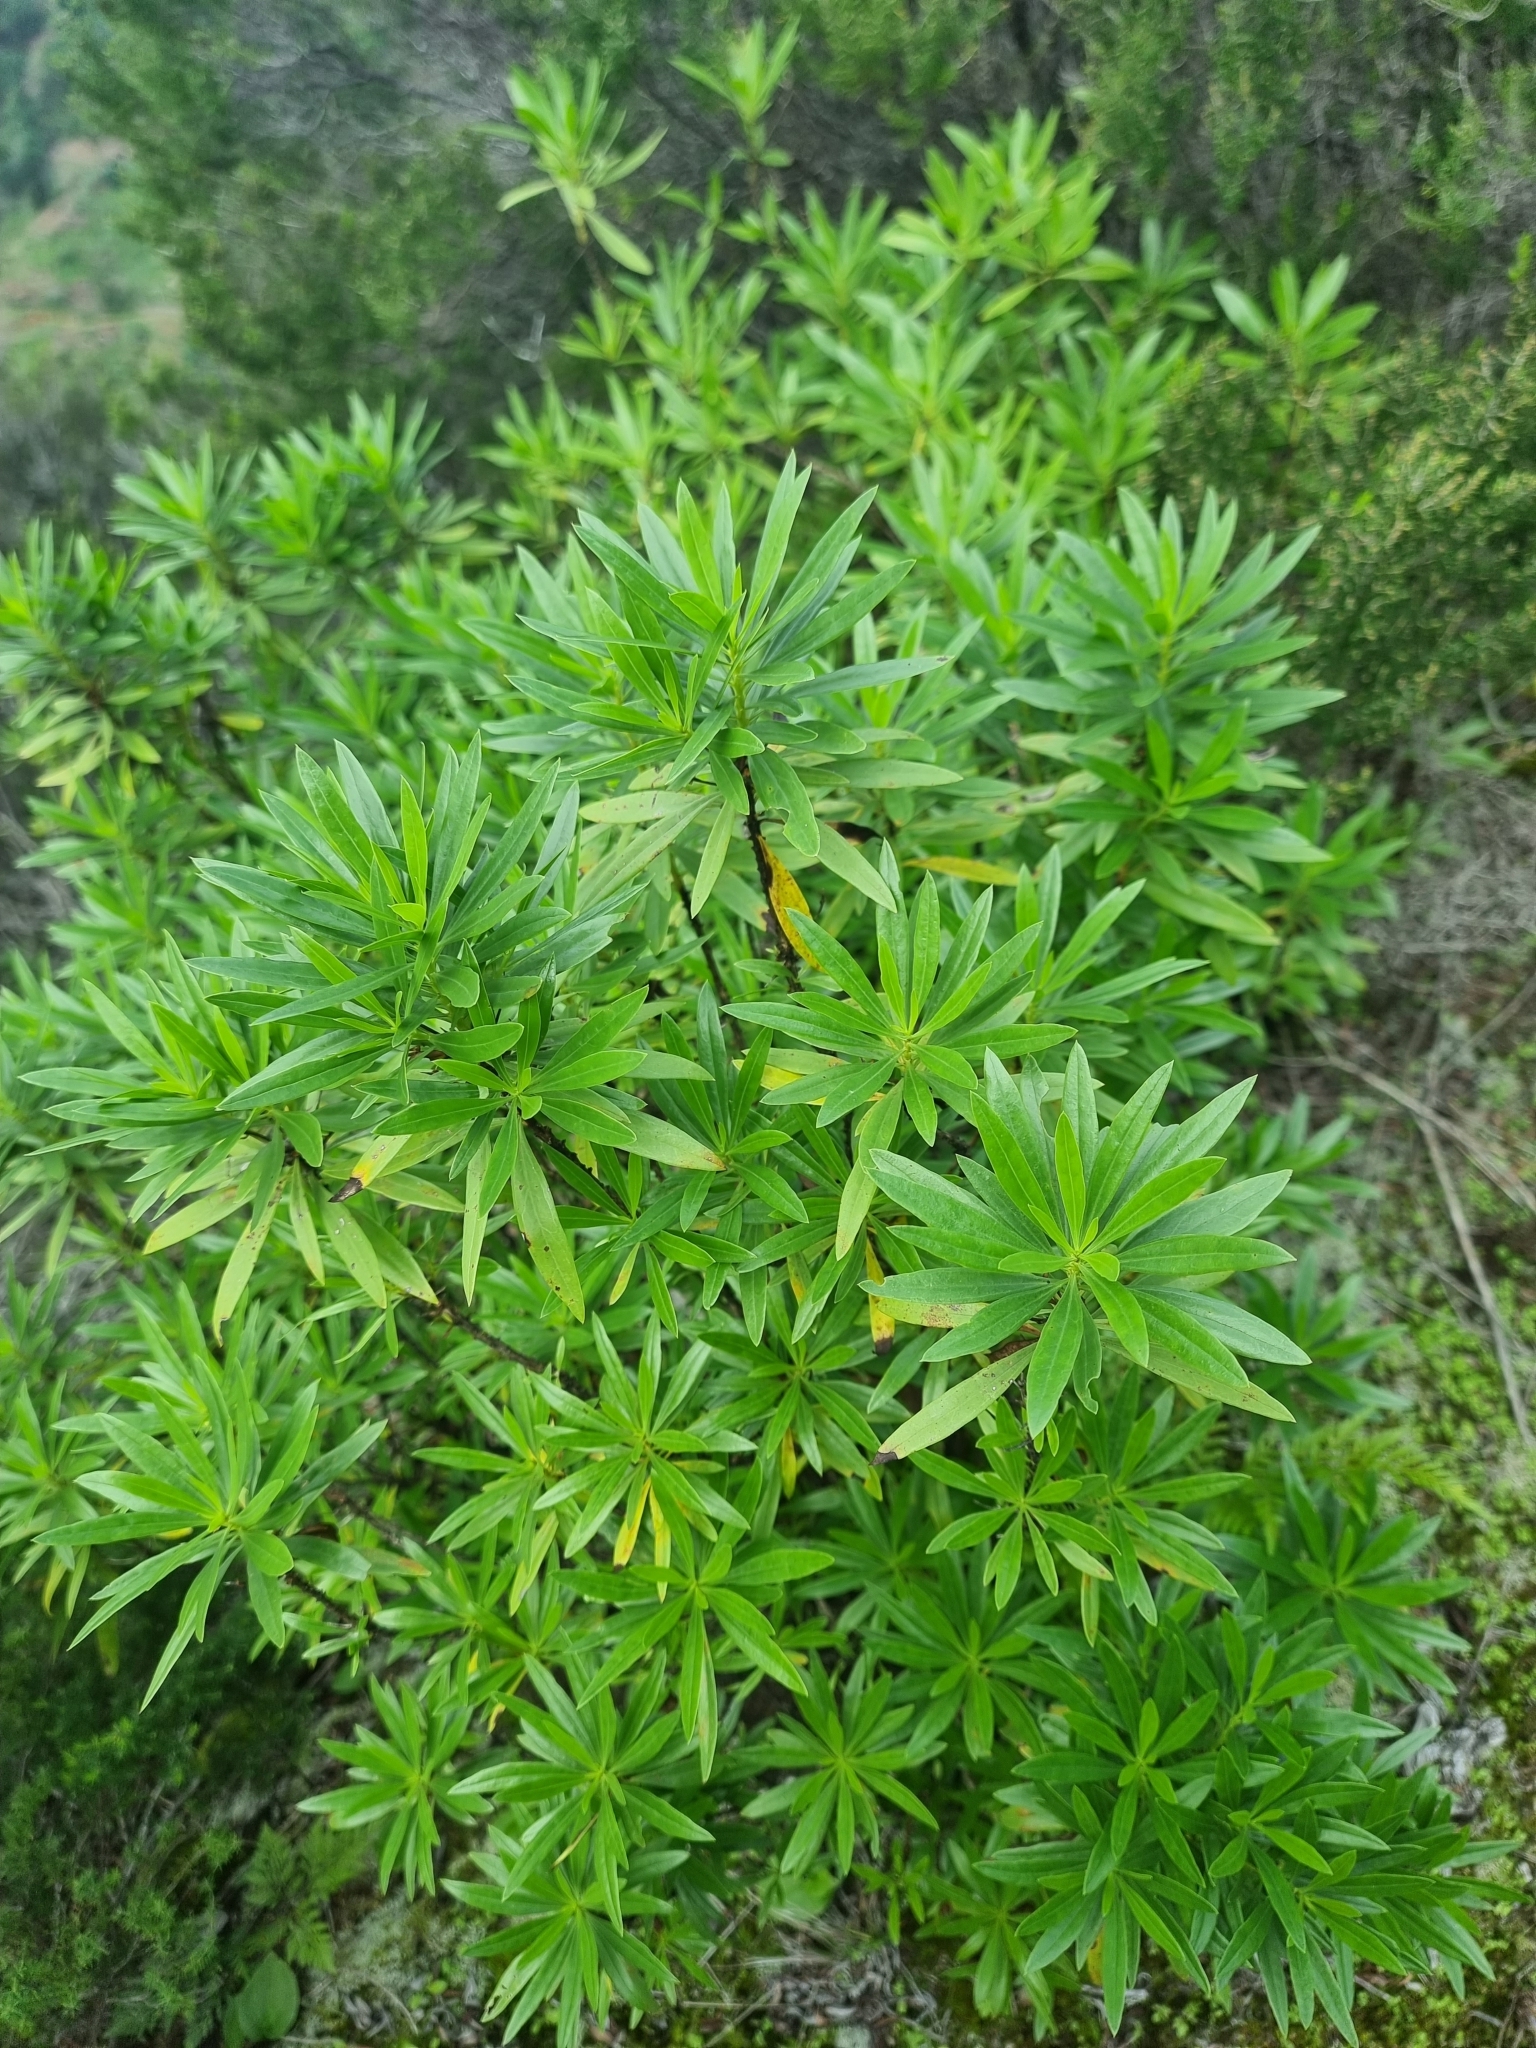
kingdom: Plantae
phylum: Tracheophyta
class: Magnoliopsida
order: Lamiales
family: Plantaginaceae
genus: Globularia
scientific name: Globularia salicina
